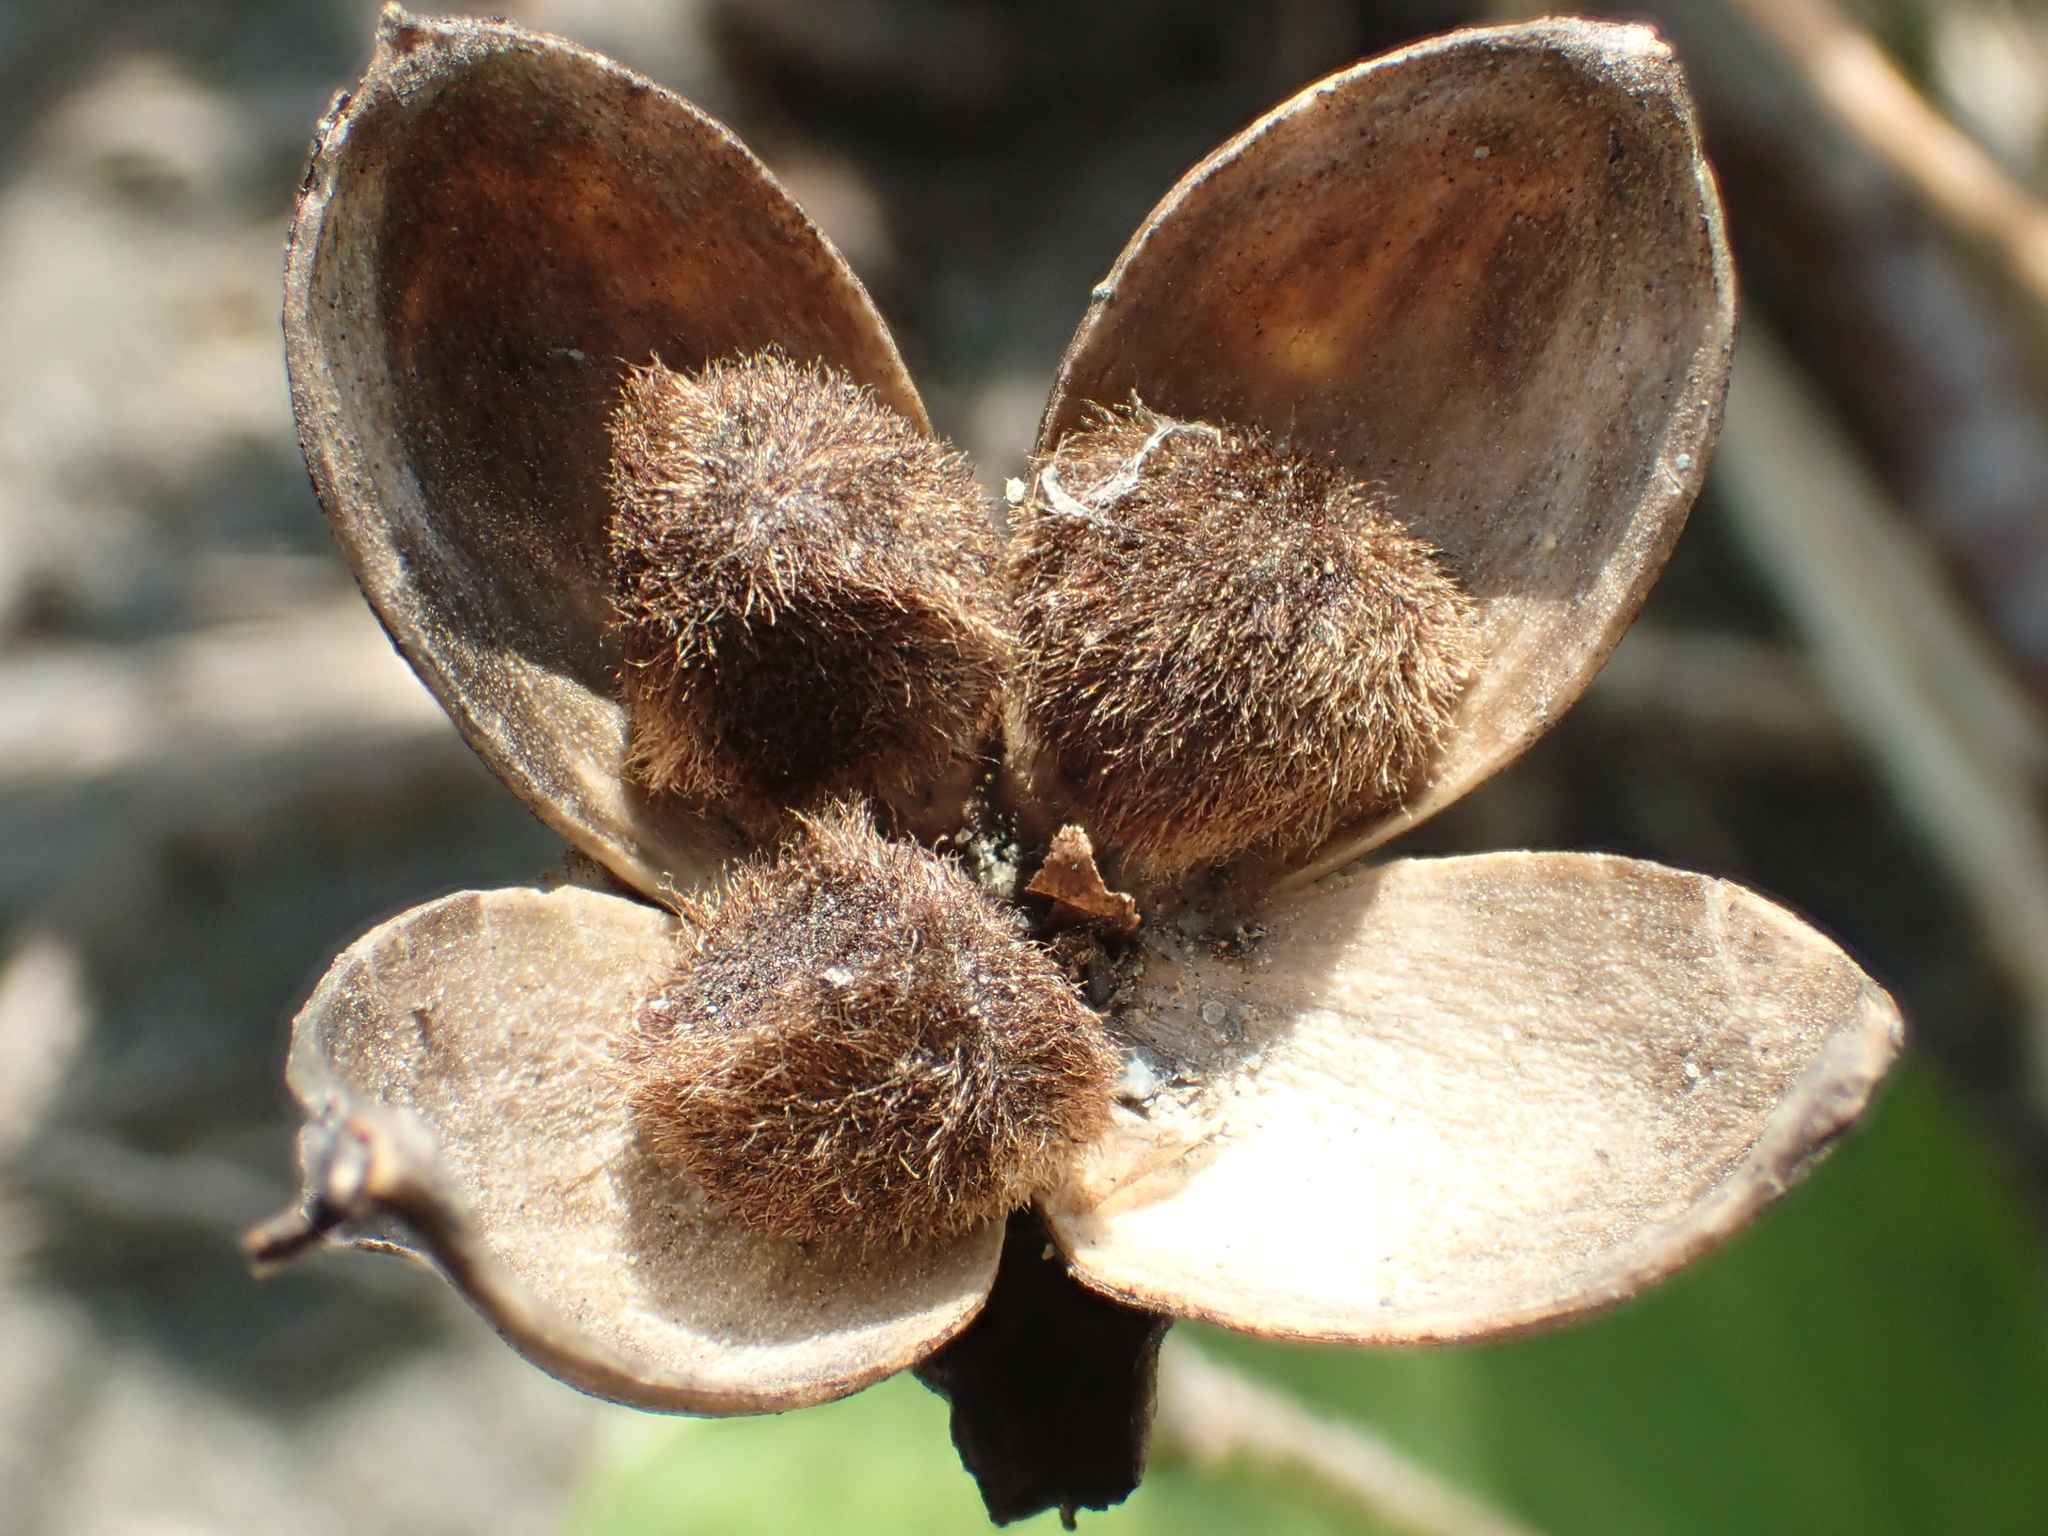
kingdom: Plantae
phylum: Tracheophyta
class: Magnoliopsida
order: Solanales
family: Convolvulaceae
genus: Ipomoea
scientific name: Ipomoea pes-caprae
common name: Beach morning glory
